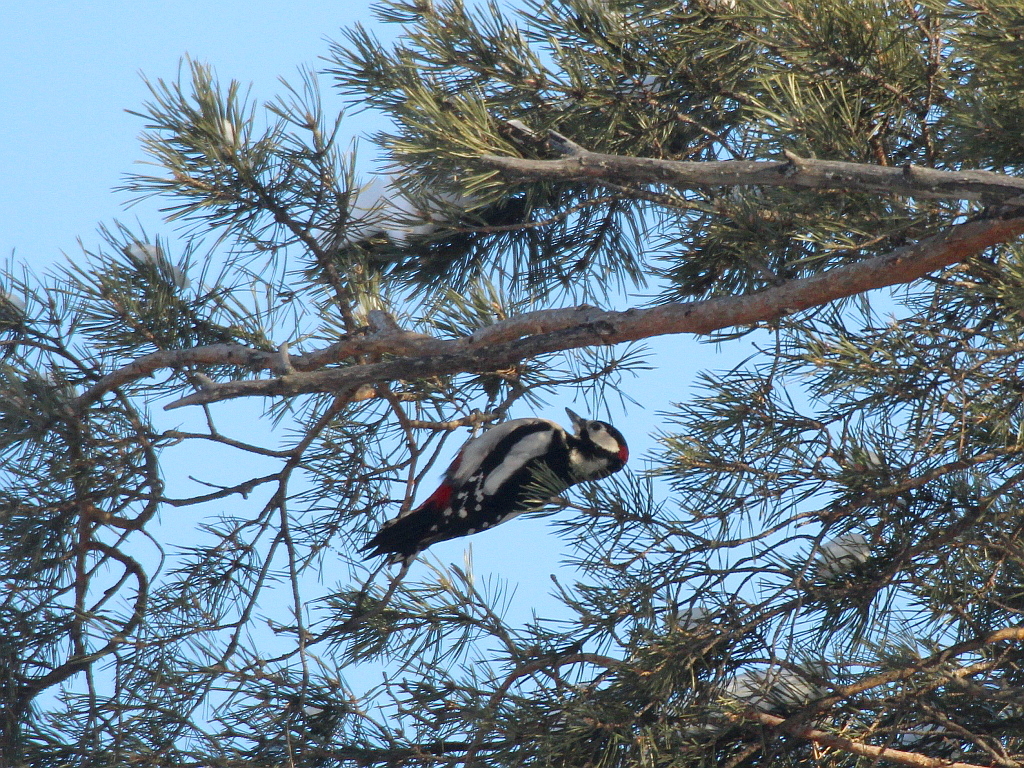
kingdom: Animalia
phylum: Chordata
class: Aves
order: Piciformes
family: Picidae
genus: Dendrocopos
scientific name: Dendrocopos major
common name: Great spotted woodpecker
